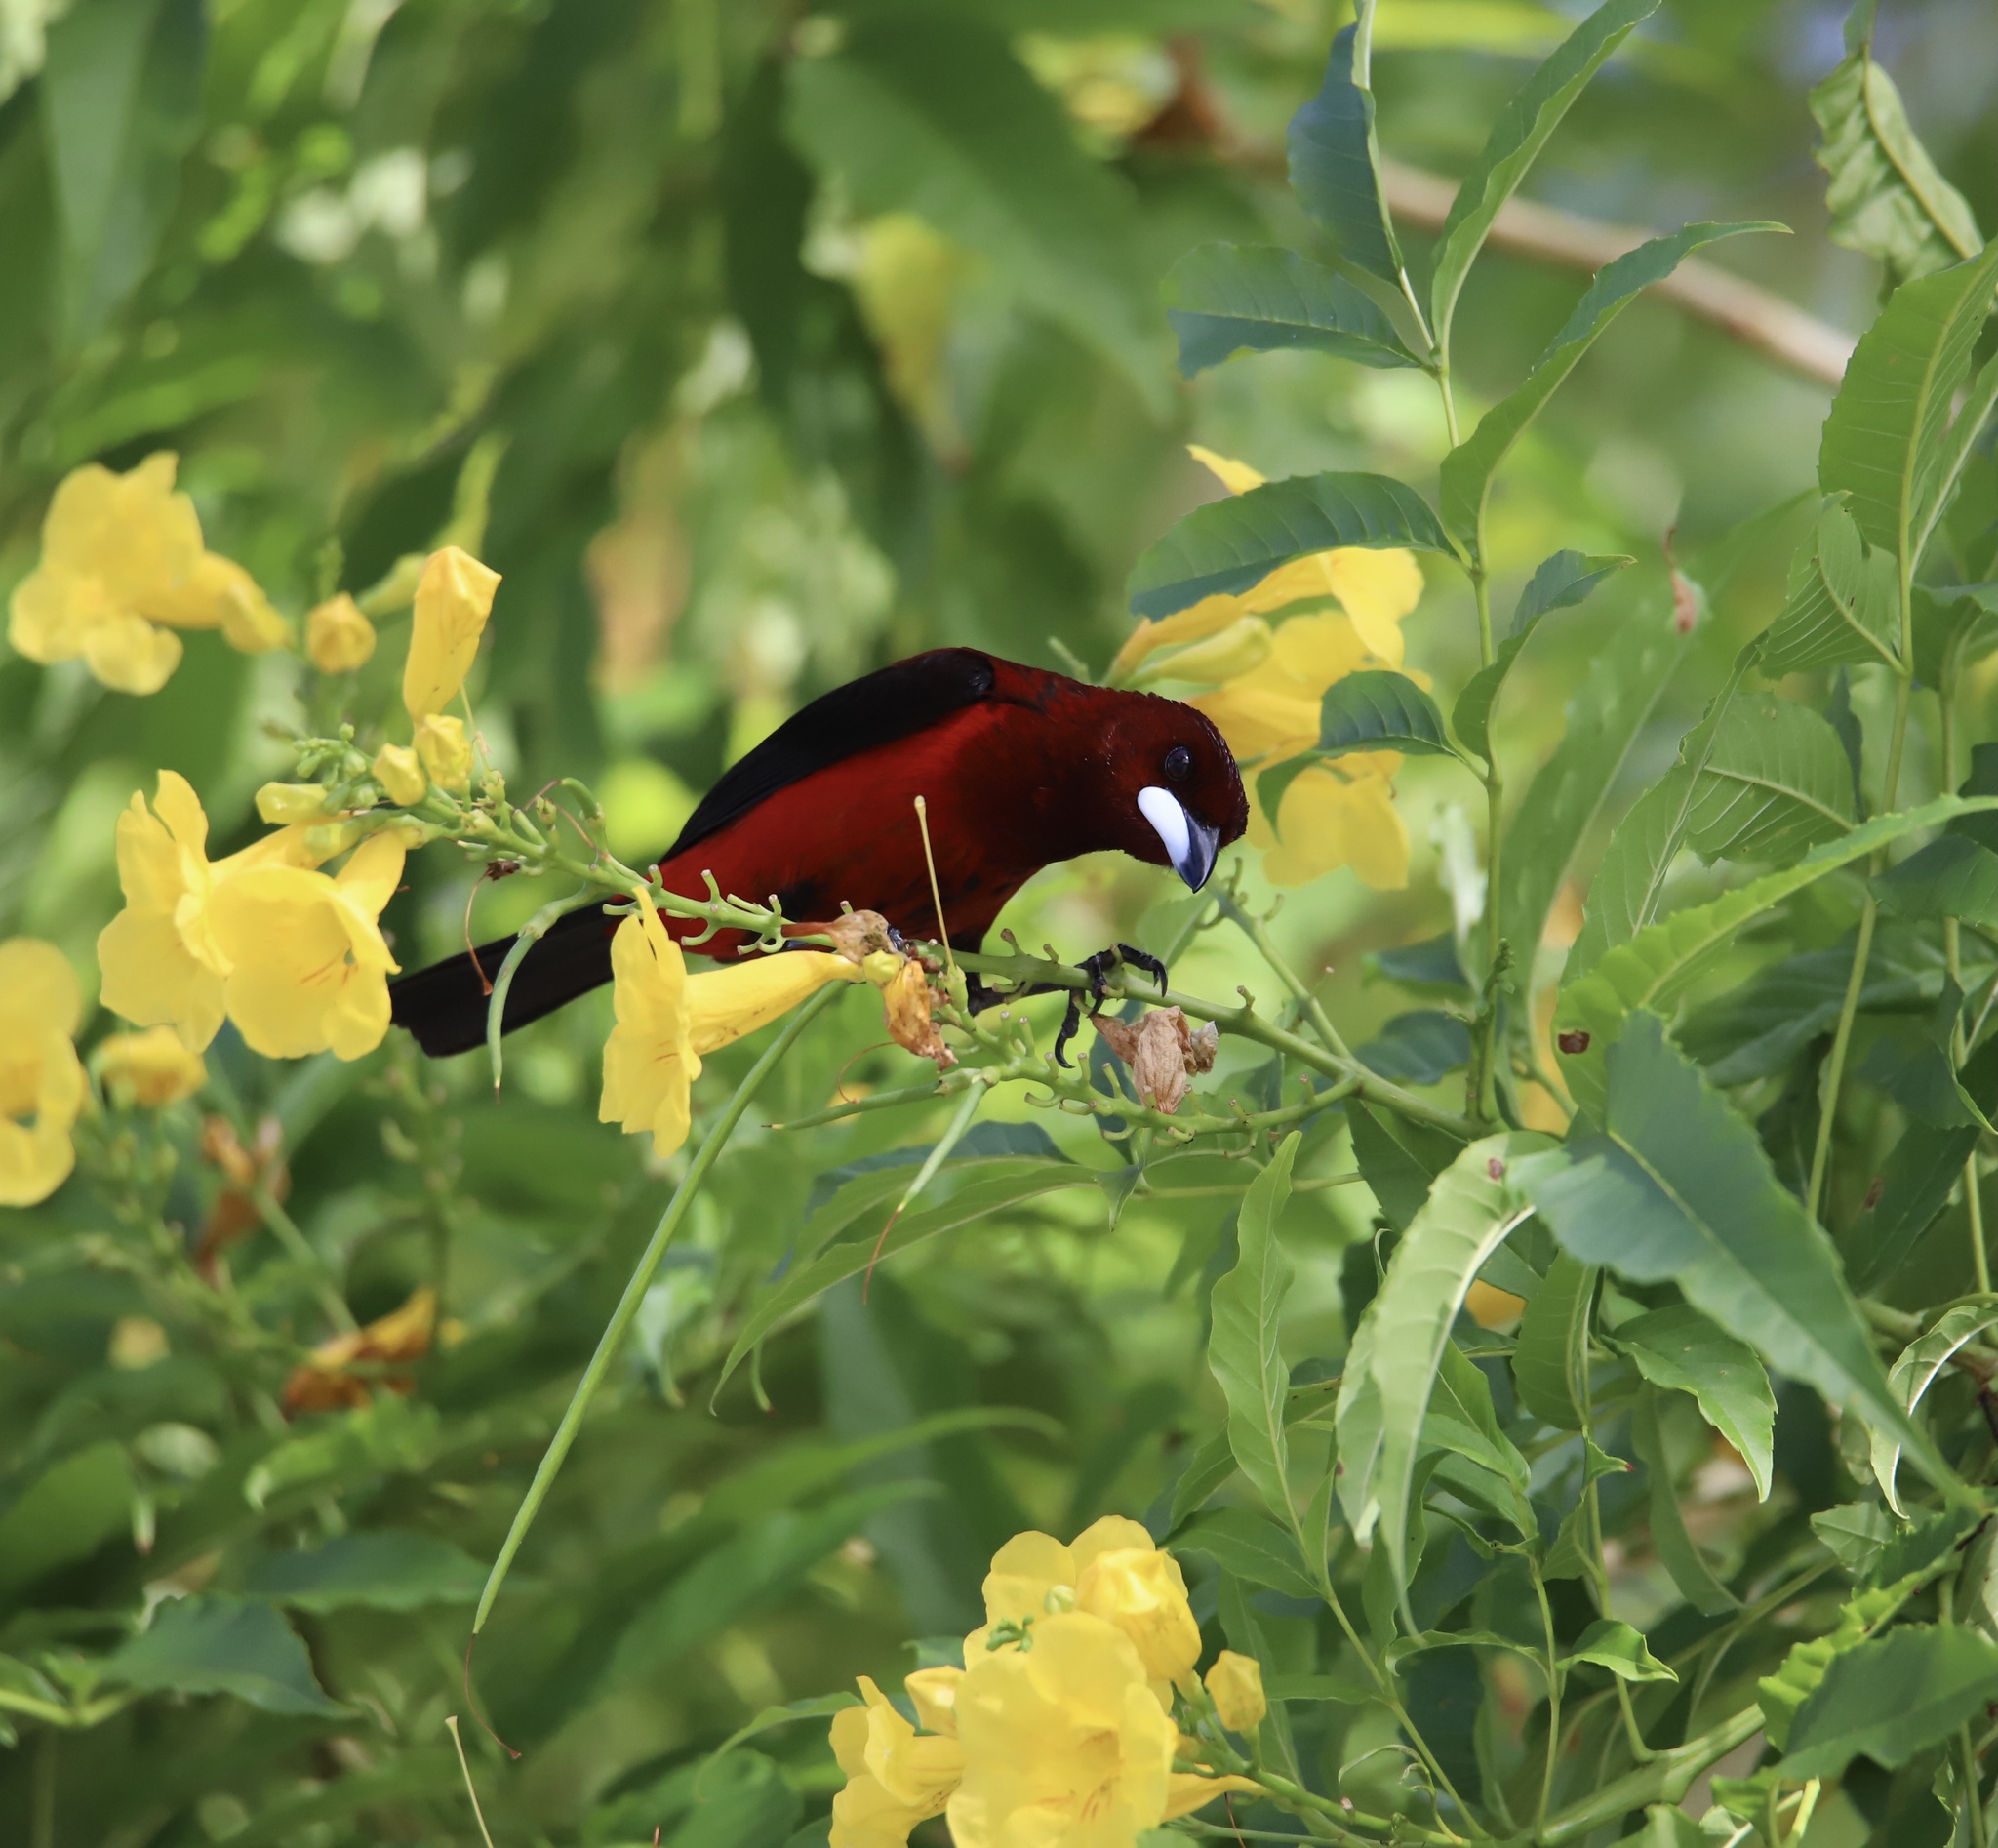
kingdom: Animalia
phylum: Chordata
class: Aves
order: Passeriformes
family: Thraupidae
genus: Ramphocelus
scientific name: Ramphocelus dimidiatus
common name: Crimson-backed tanager
